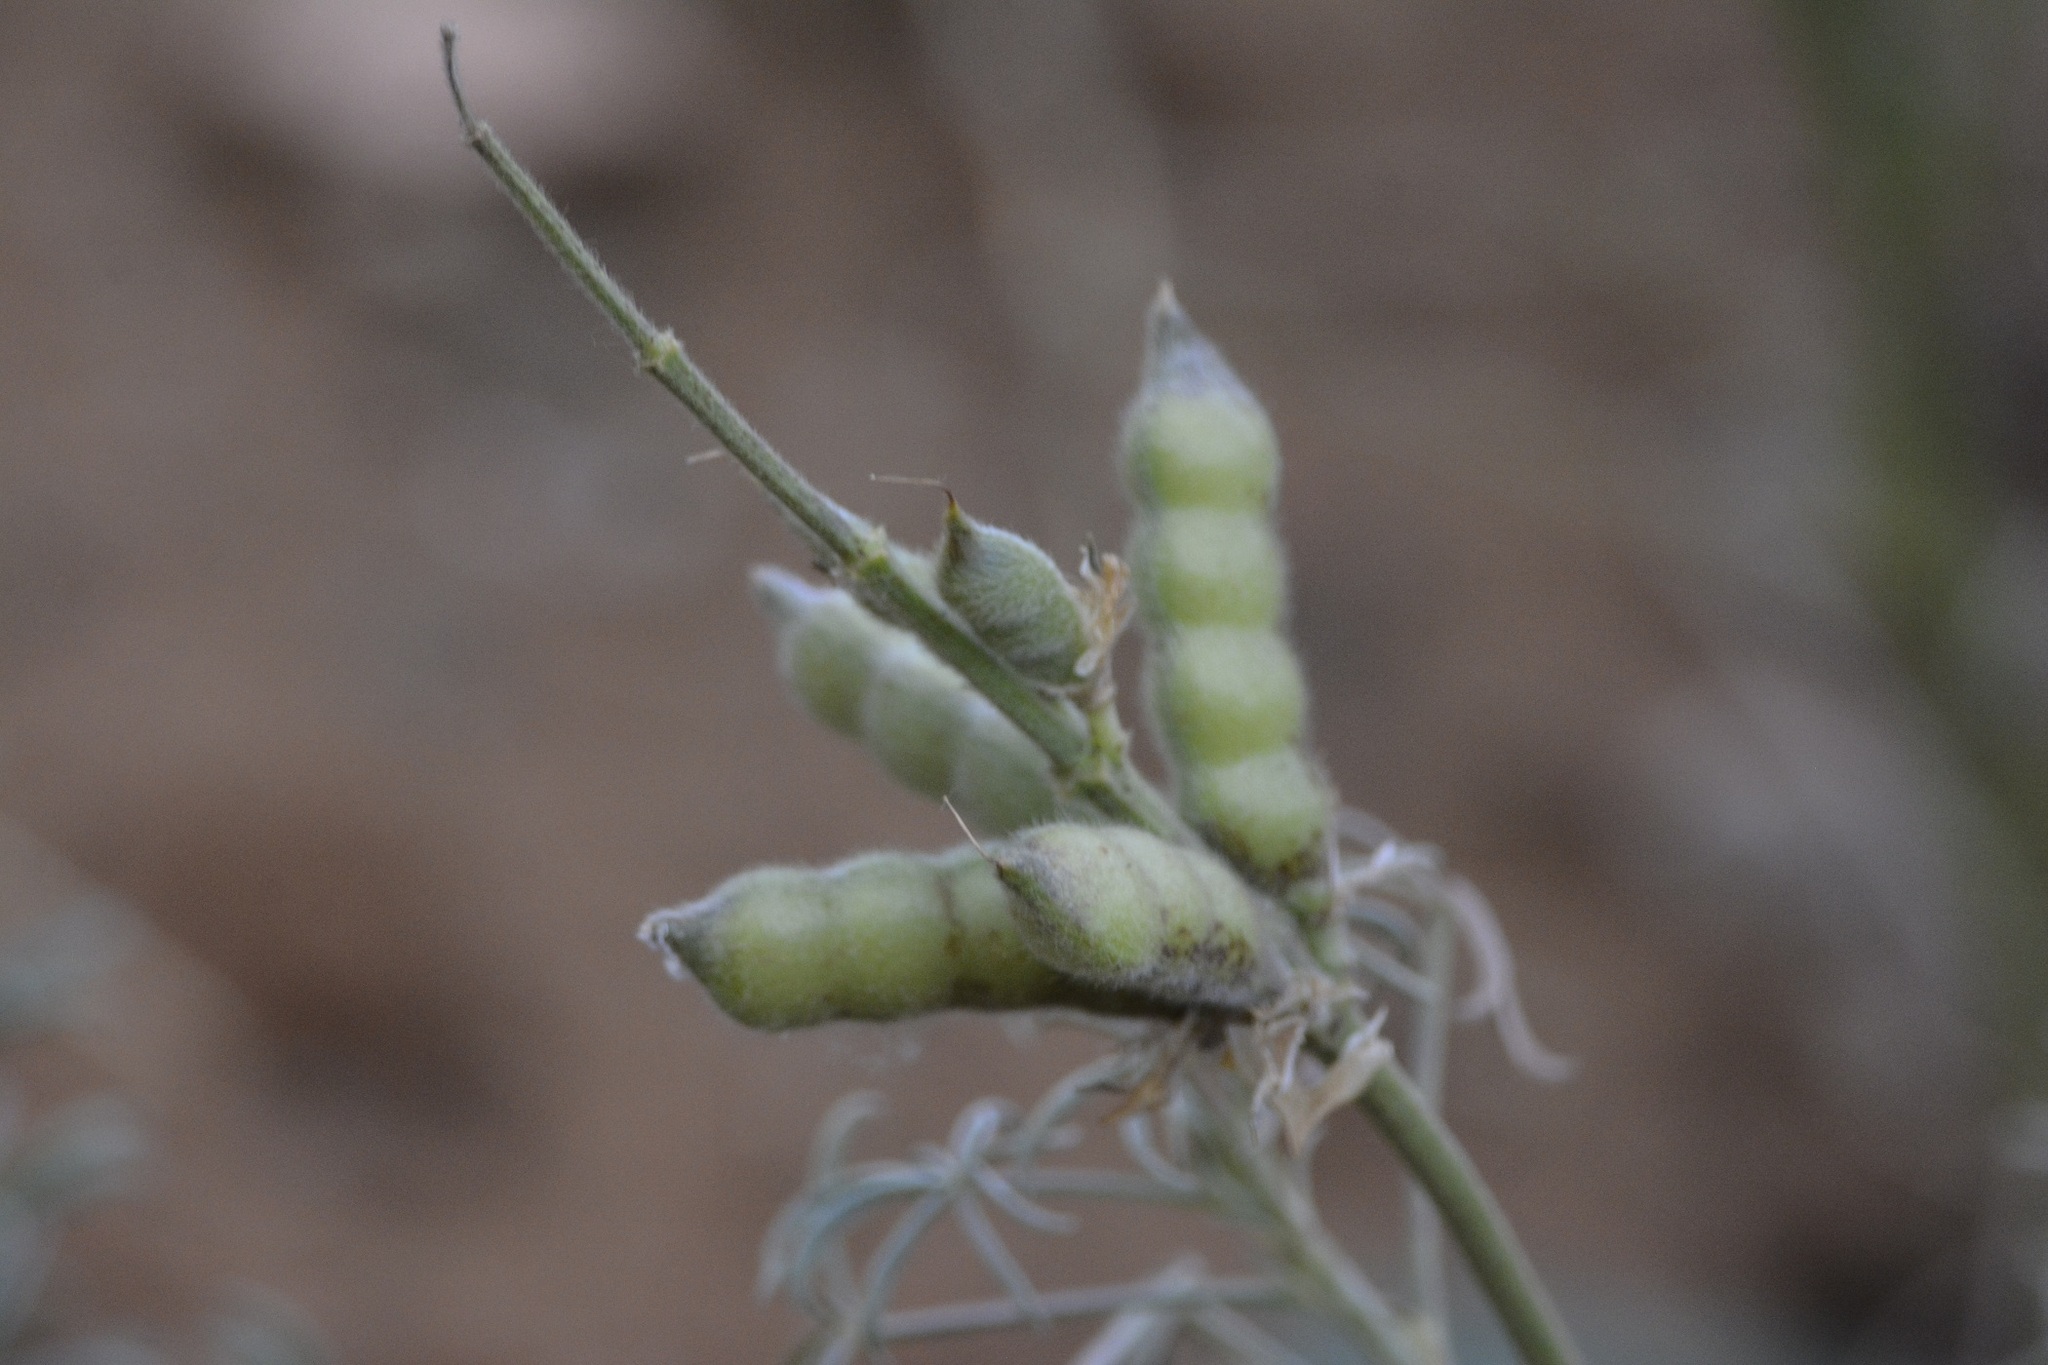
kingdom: Plantae
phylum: Tracheophyta
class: Magnoliopsida
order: Fabales
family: Fabaceae
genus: Lupinus
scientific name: Lupinus luteus
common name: European yellow lupine
